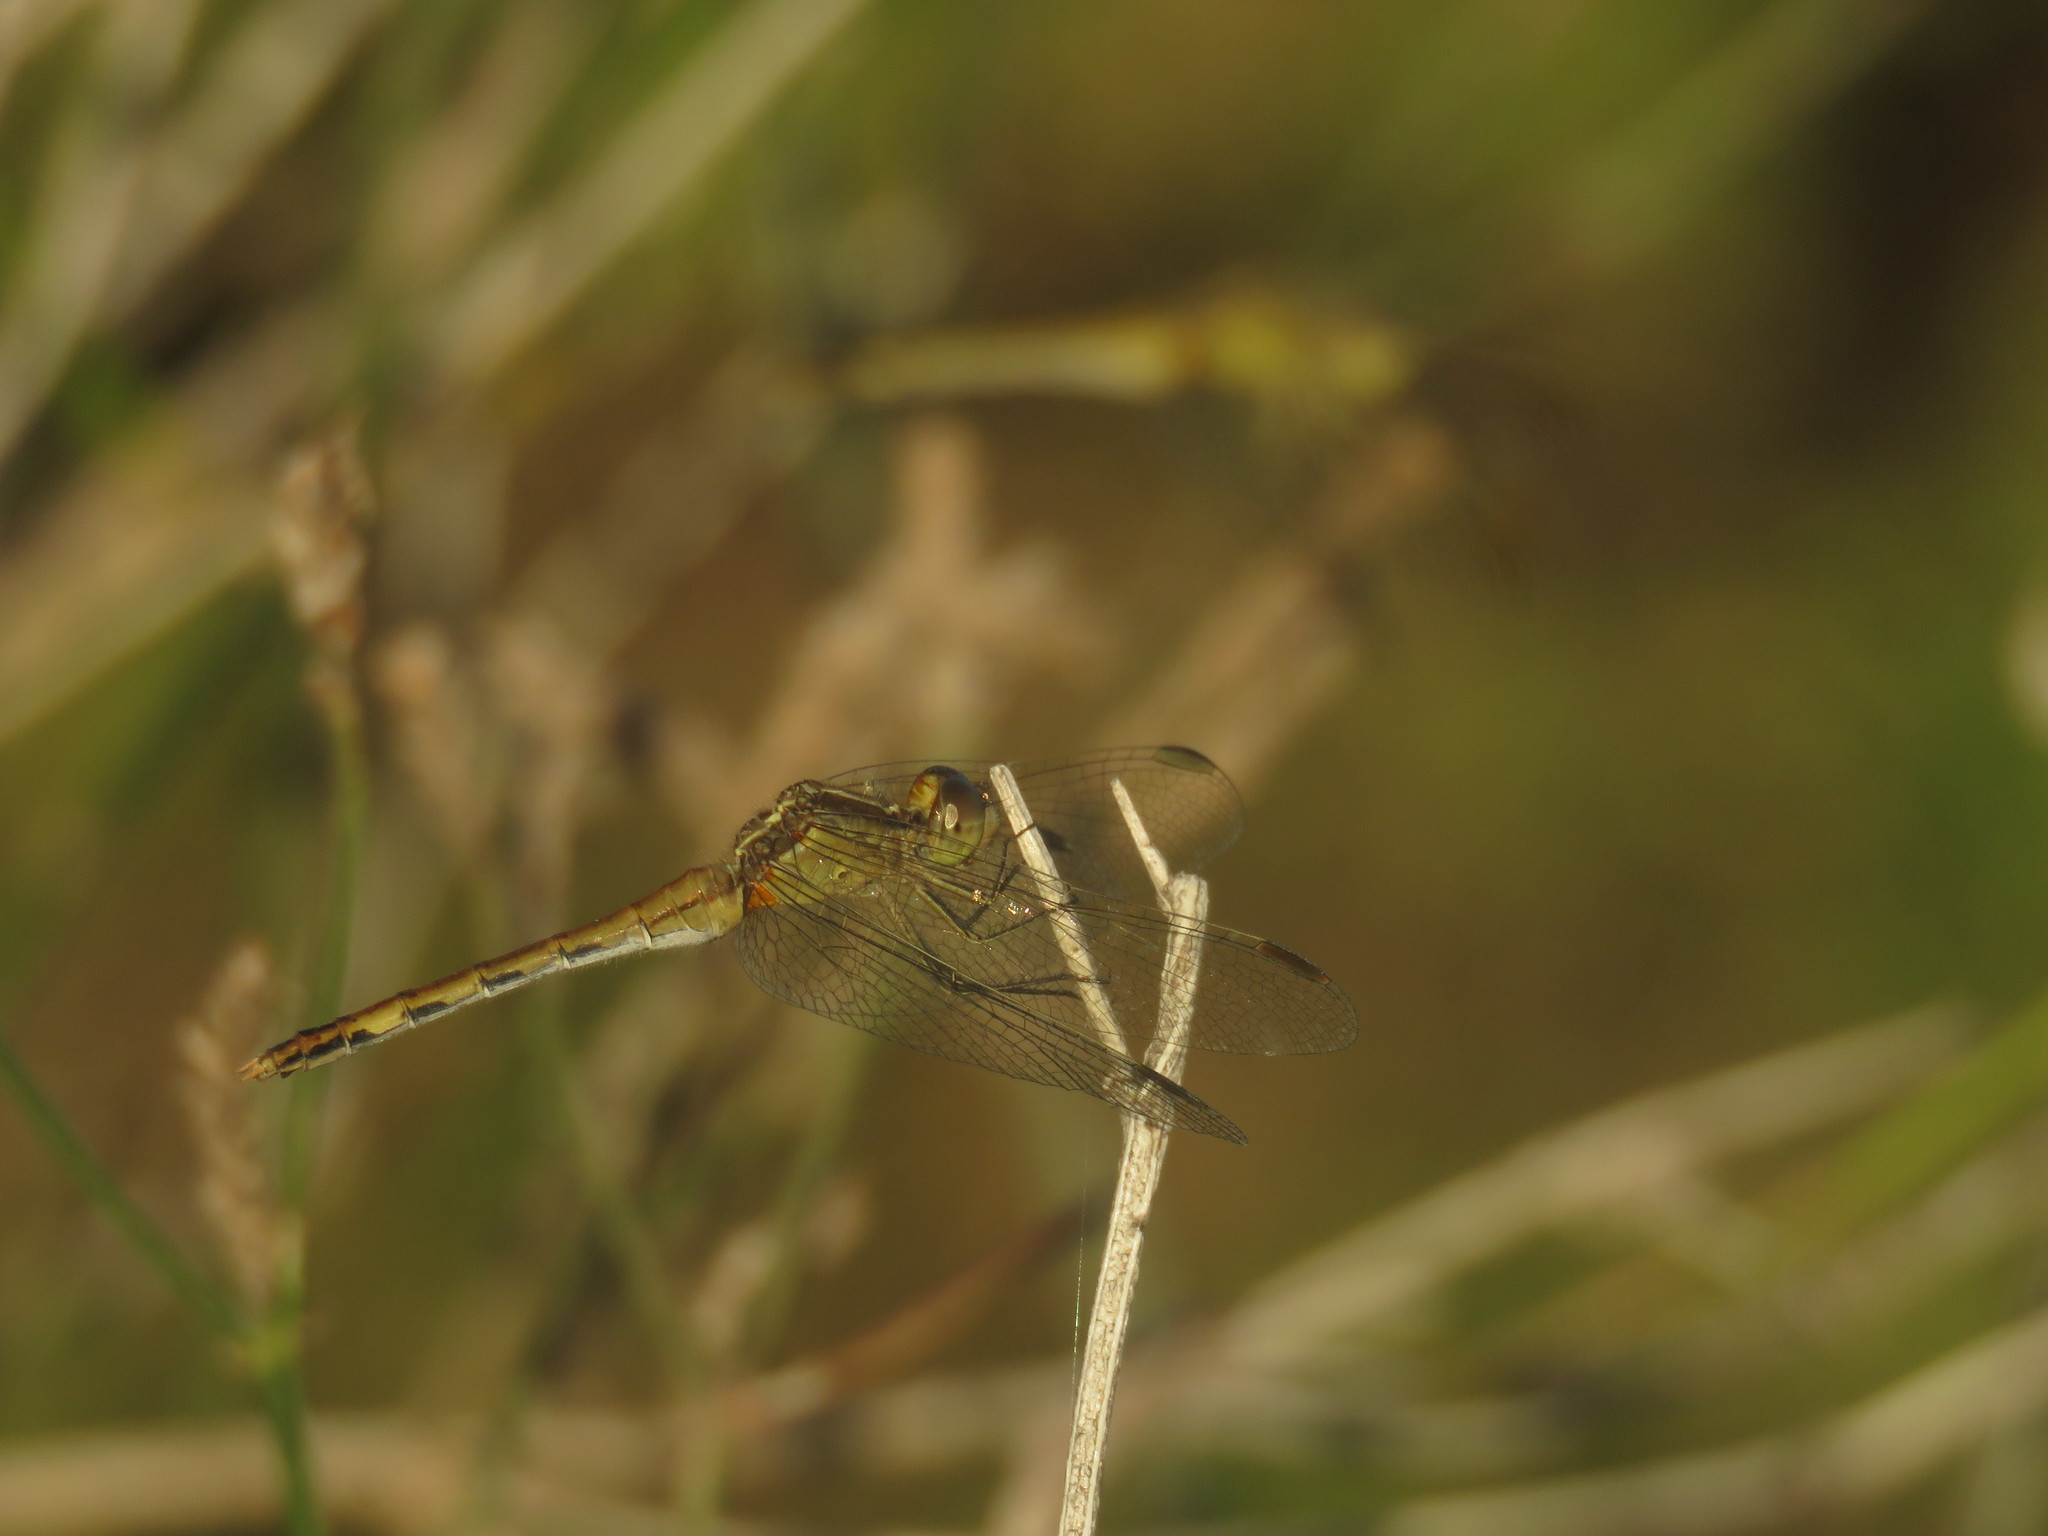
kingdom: Animalia
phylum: Arthropoda
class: Insecta
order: Odonata
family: Libellulidae
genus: Erythrodiplax
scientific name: Erythrodiplax nigricans
